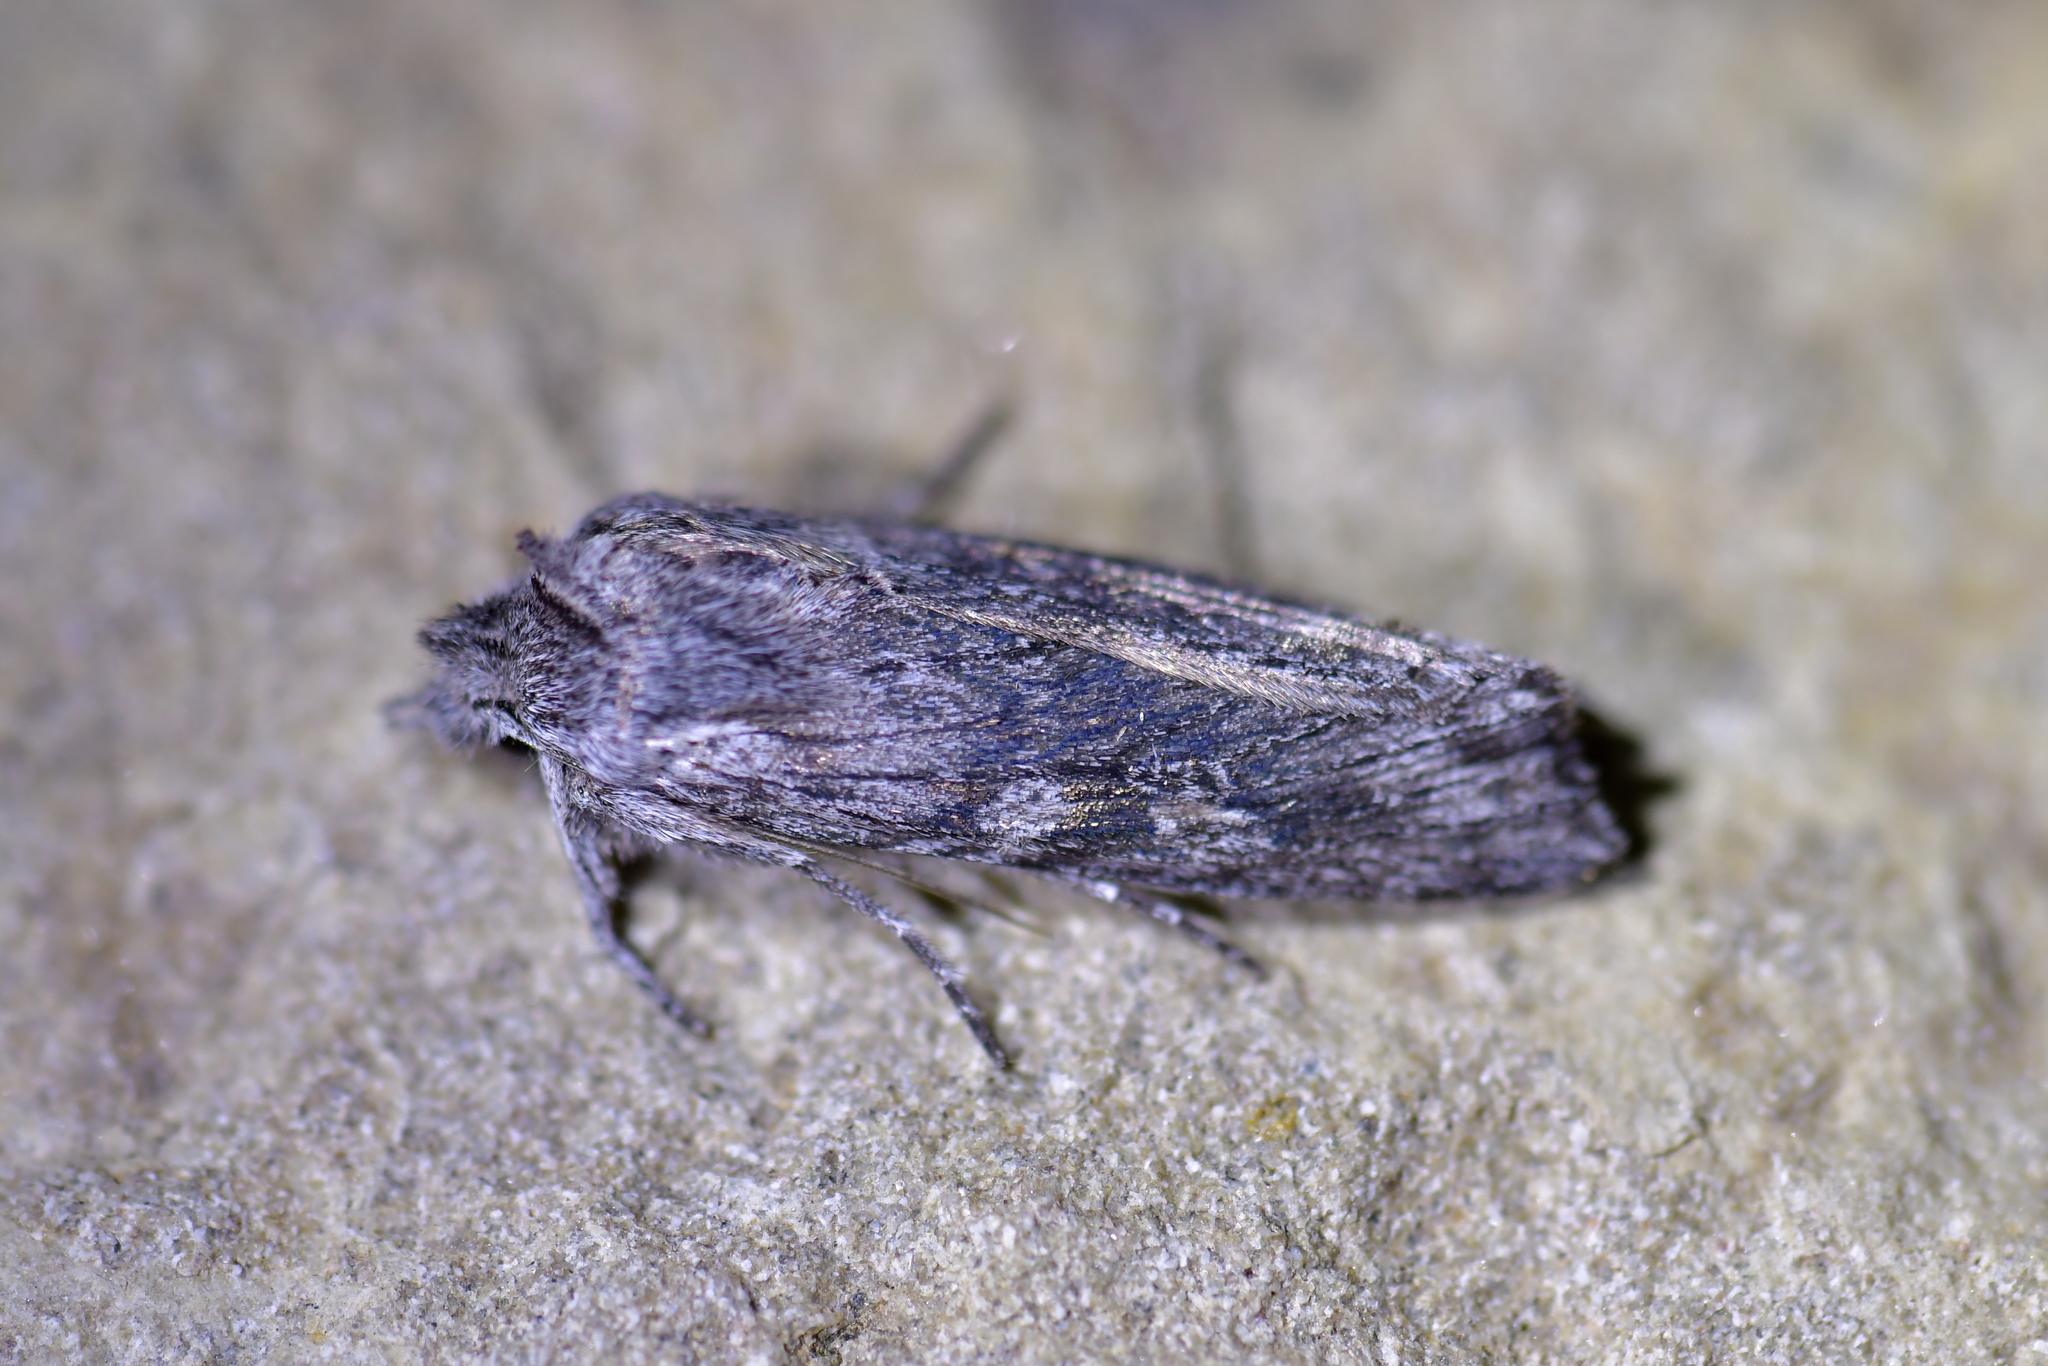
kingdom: Animalia
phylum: Arthropoda
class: Insecta
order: Lepidoptera
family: Noctuidae
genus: Physetica
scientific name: Physetica phricias
